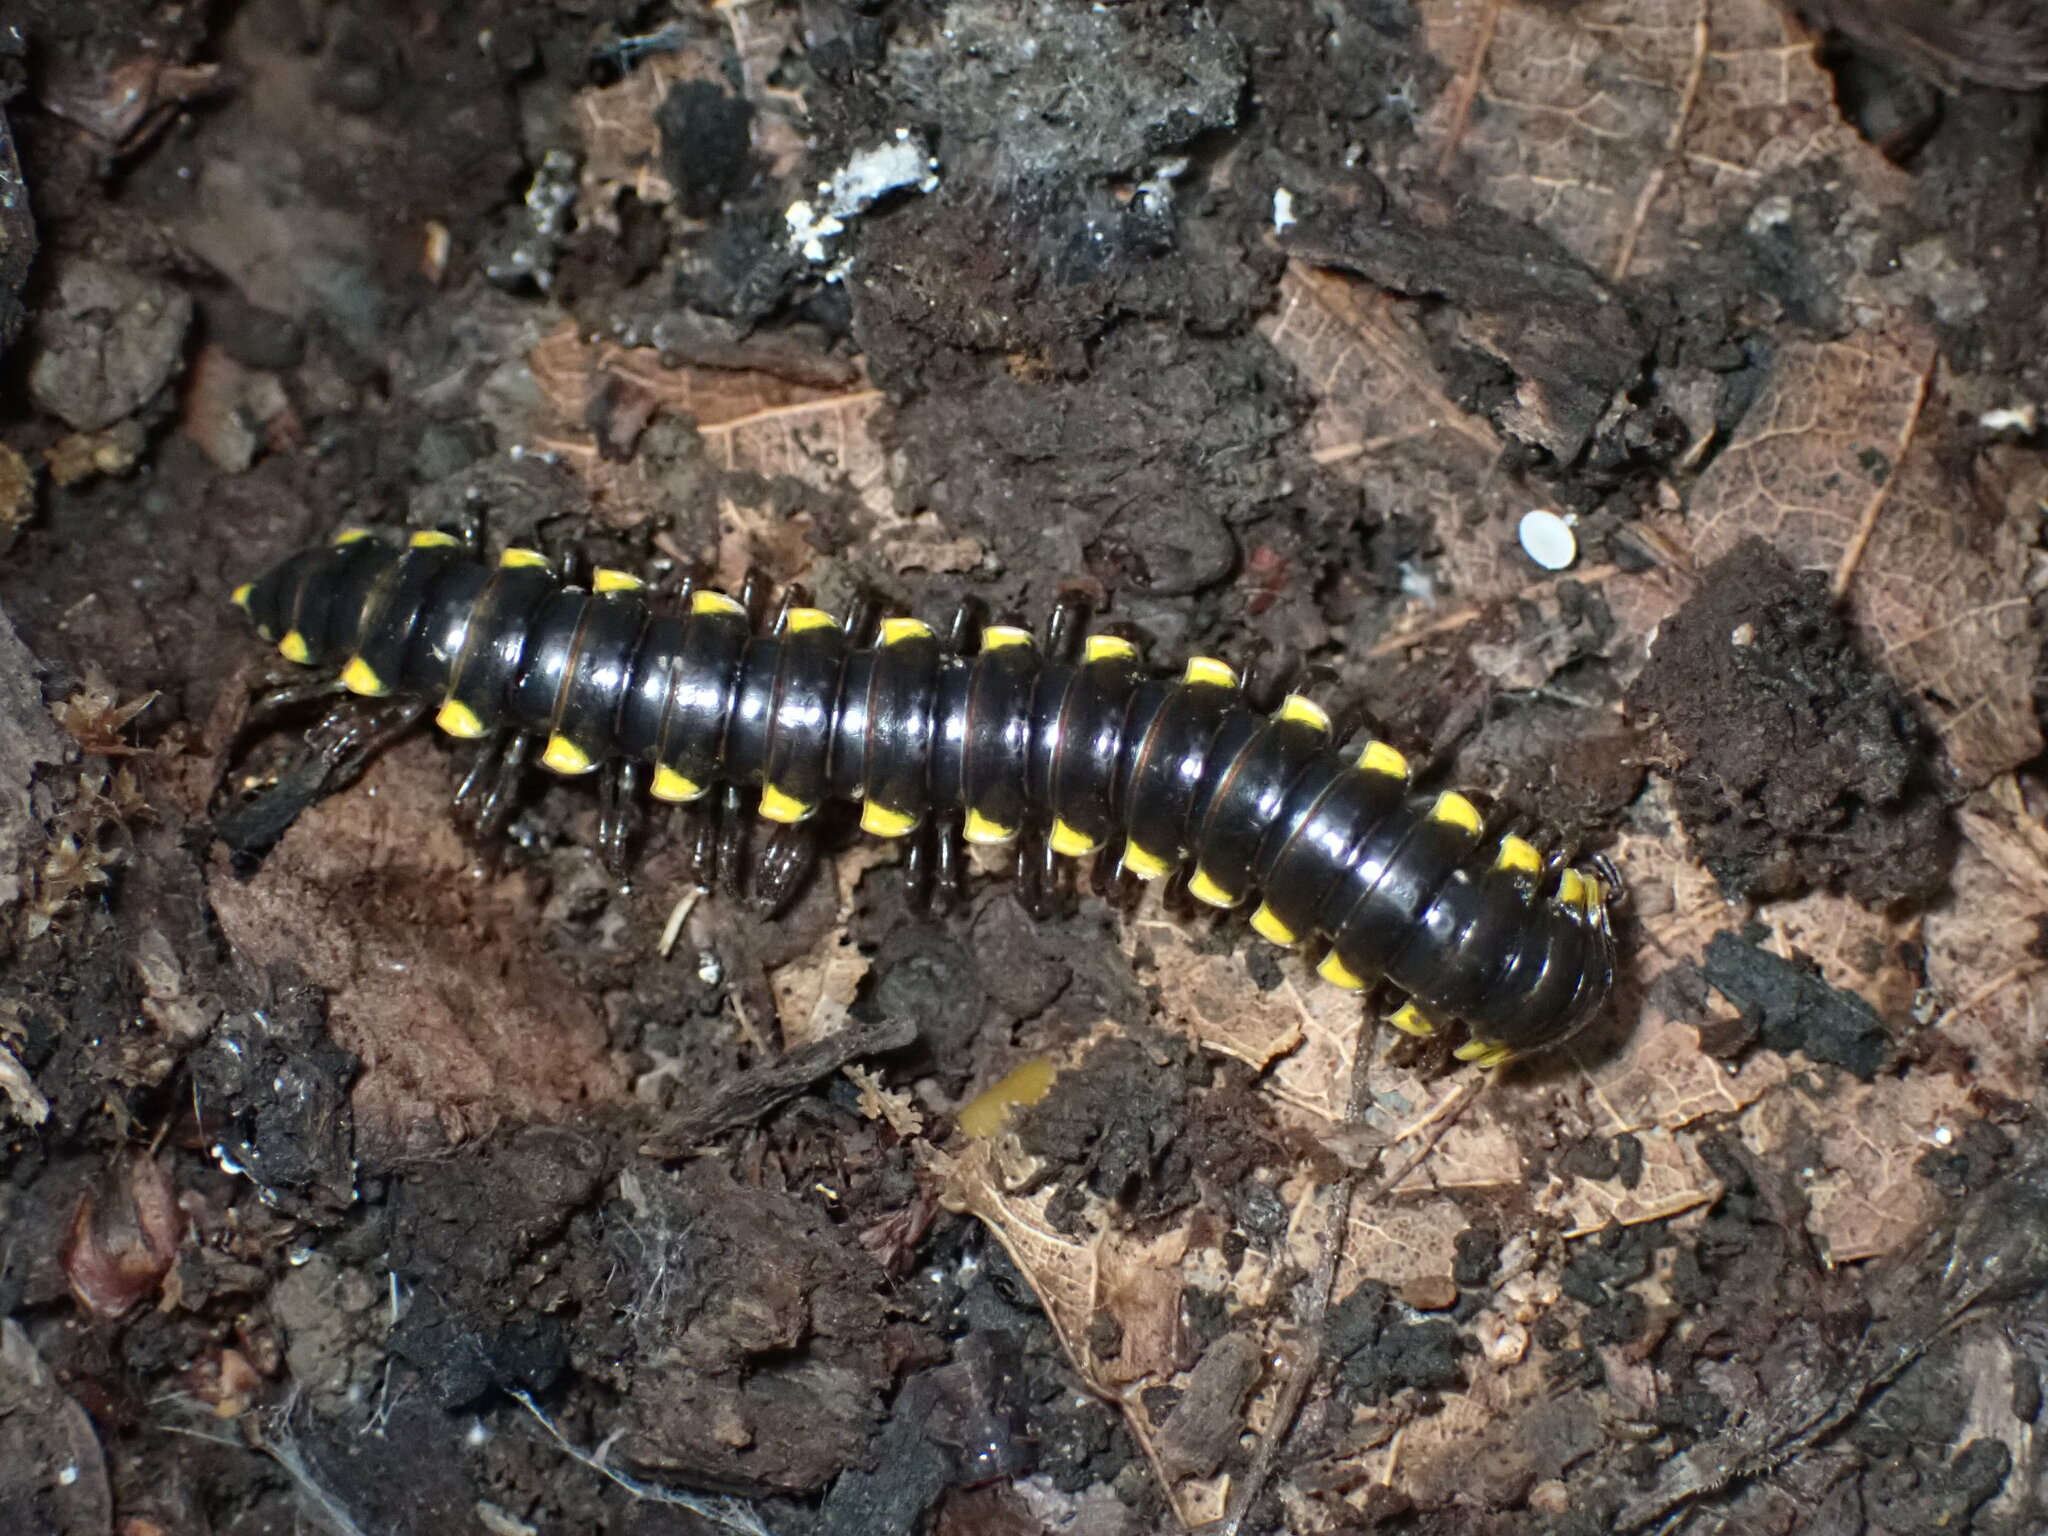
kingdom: Animalia
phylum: Arthropoda
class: Diplopoda
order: Polydesmida
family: Xystodesmidae
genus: Harpaphe
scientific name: Harpaphe haydeniana
